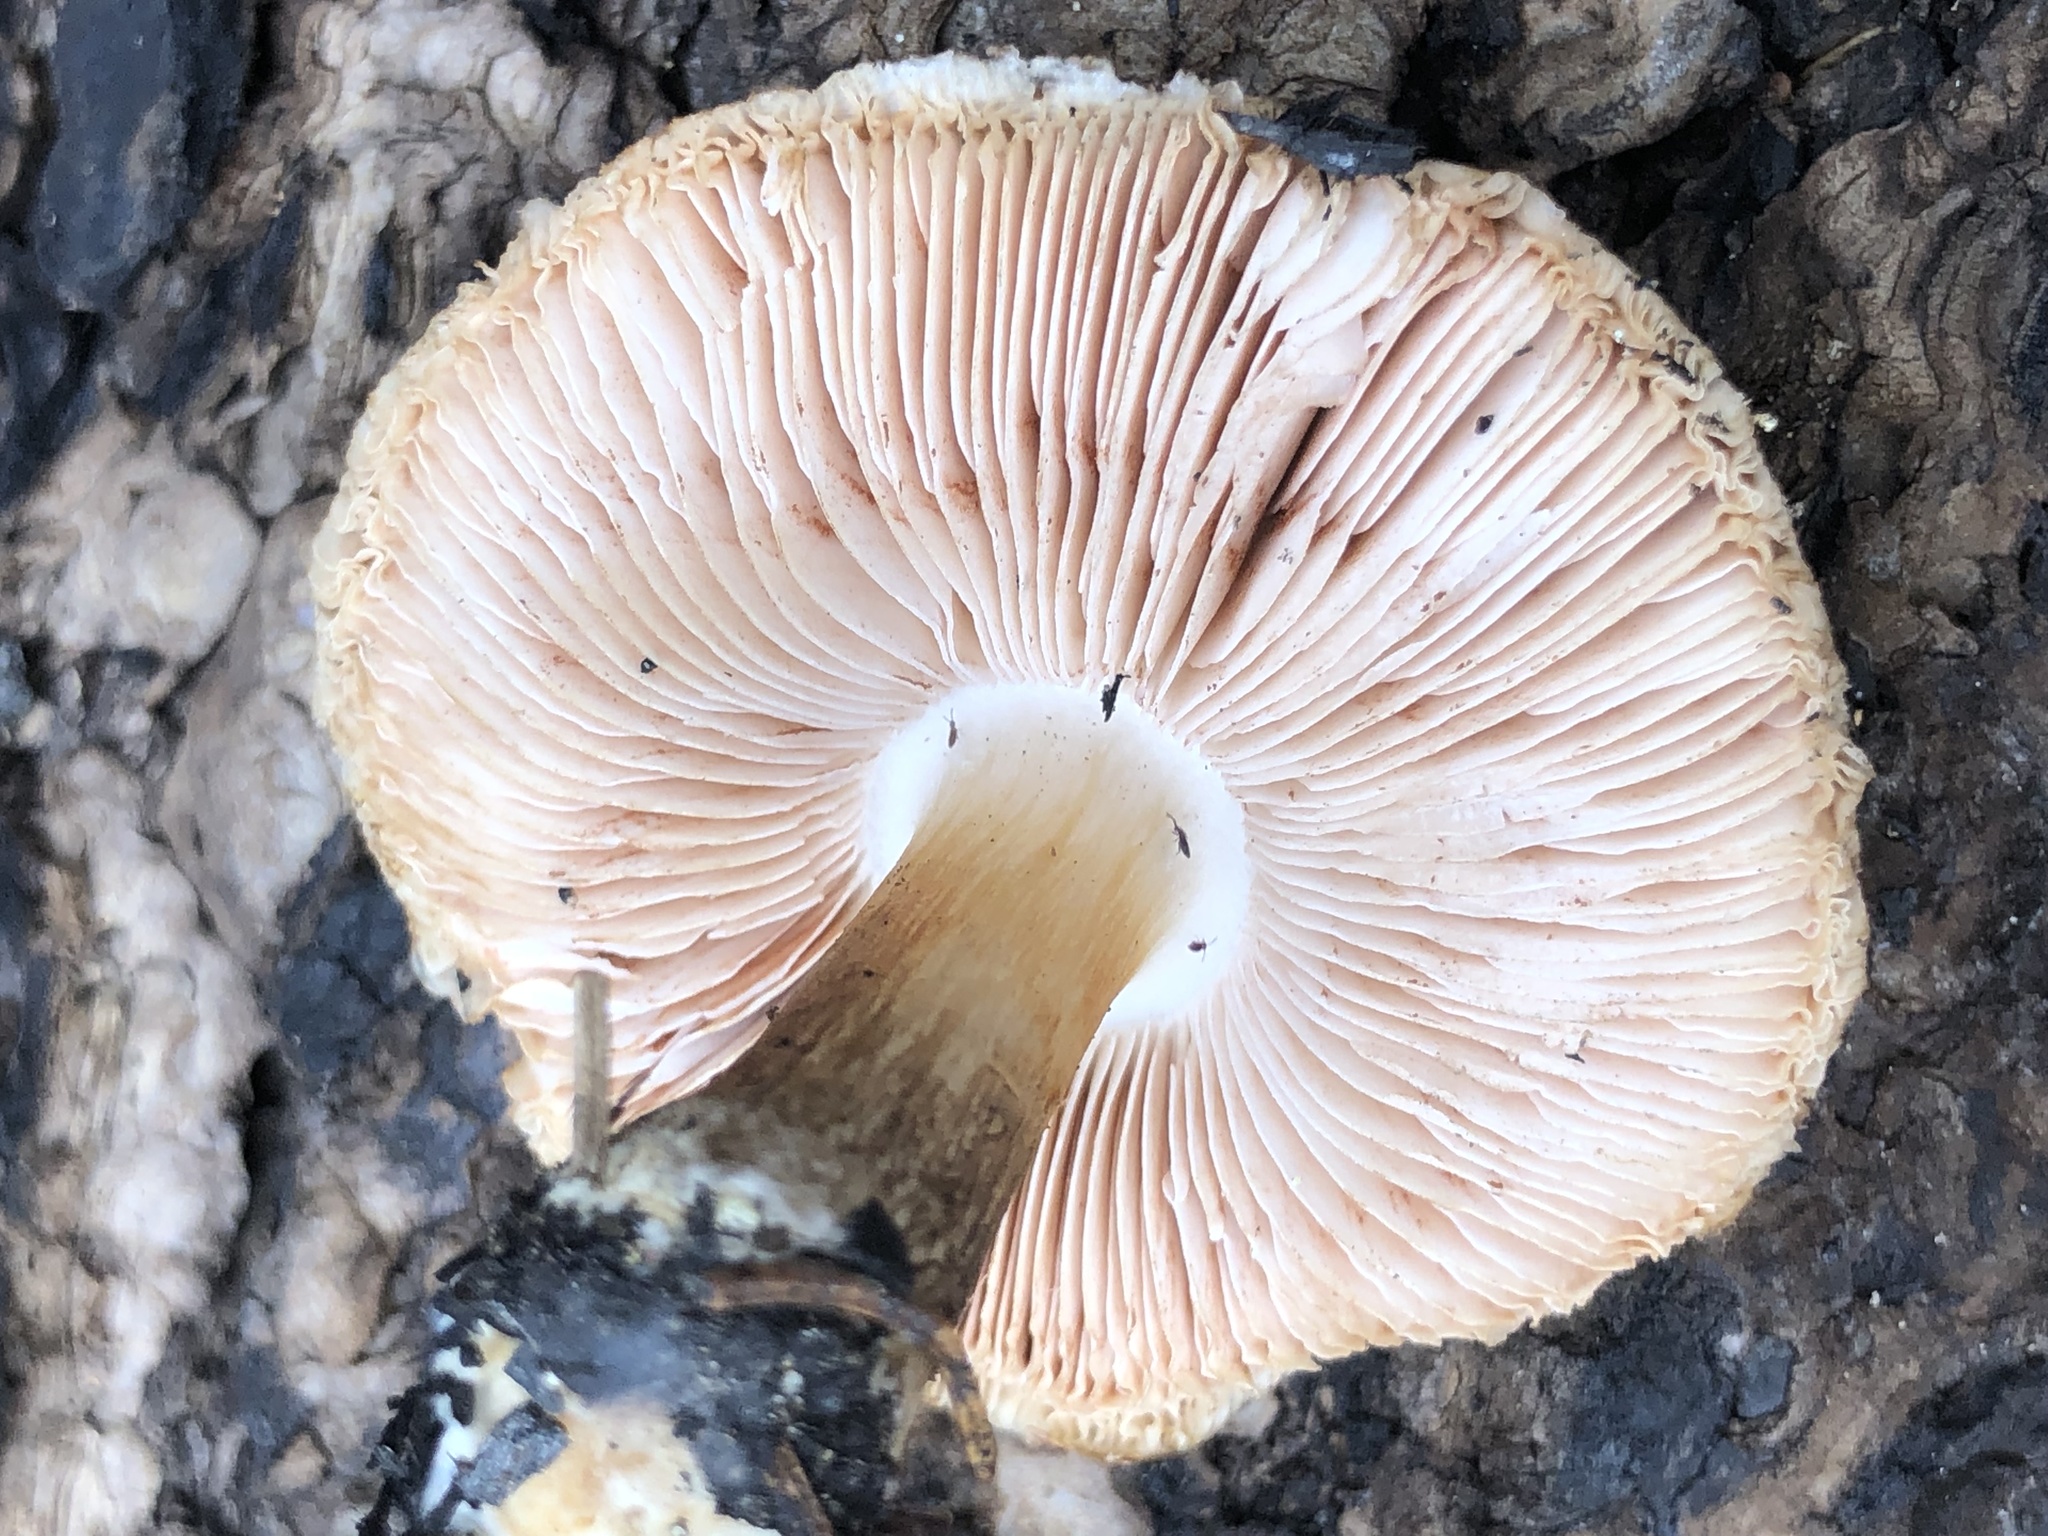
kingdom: Fungi
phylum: Basidiomycota
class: Agaricomycetes
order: Agaricales
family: Pluteaceae
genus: Pluteus
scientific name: Pluteus brunneidiscus
